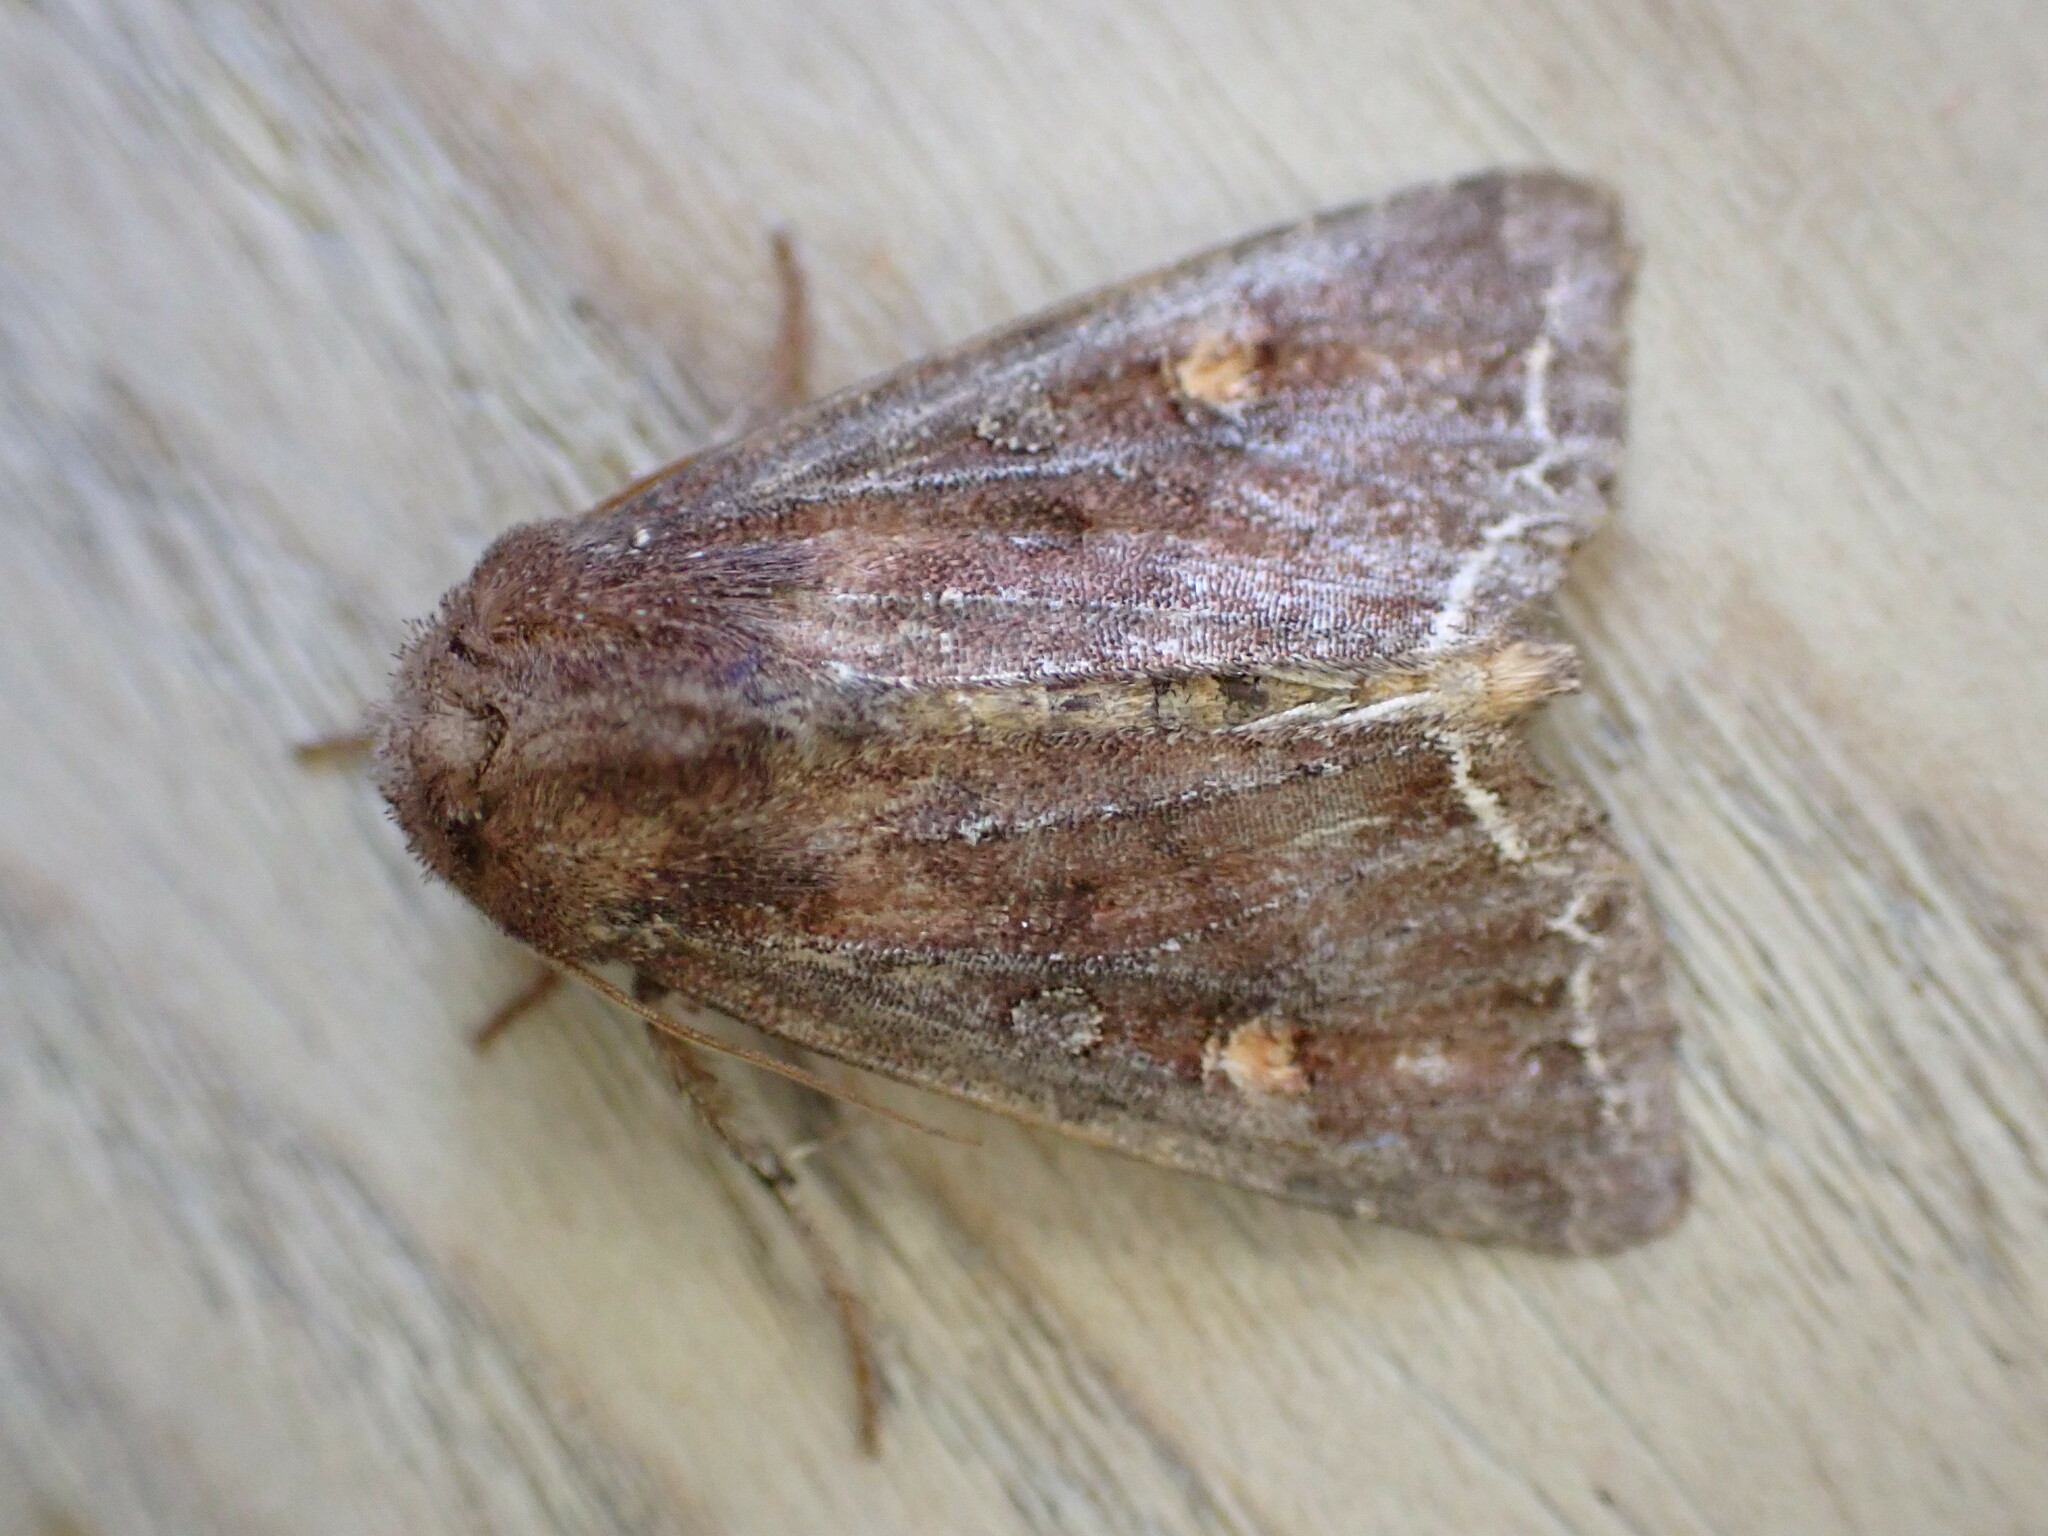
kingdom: Animalia
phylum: Arthropoda
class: Insecta
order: Lepidoptera
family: Noctuidae
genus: Lacanobia
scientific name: Lacanobia oleracea
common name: Bright-line brown-eye
